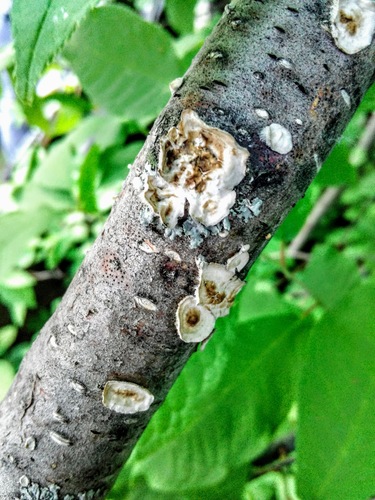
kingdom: Fungi
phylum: Basidiomycota
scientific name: Basidiomycota
